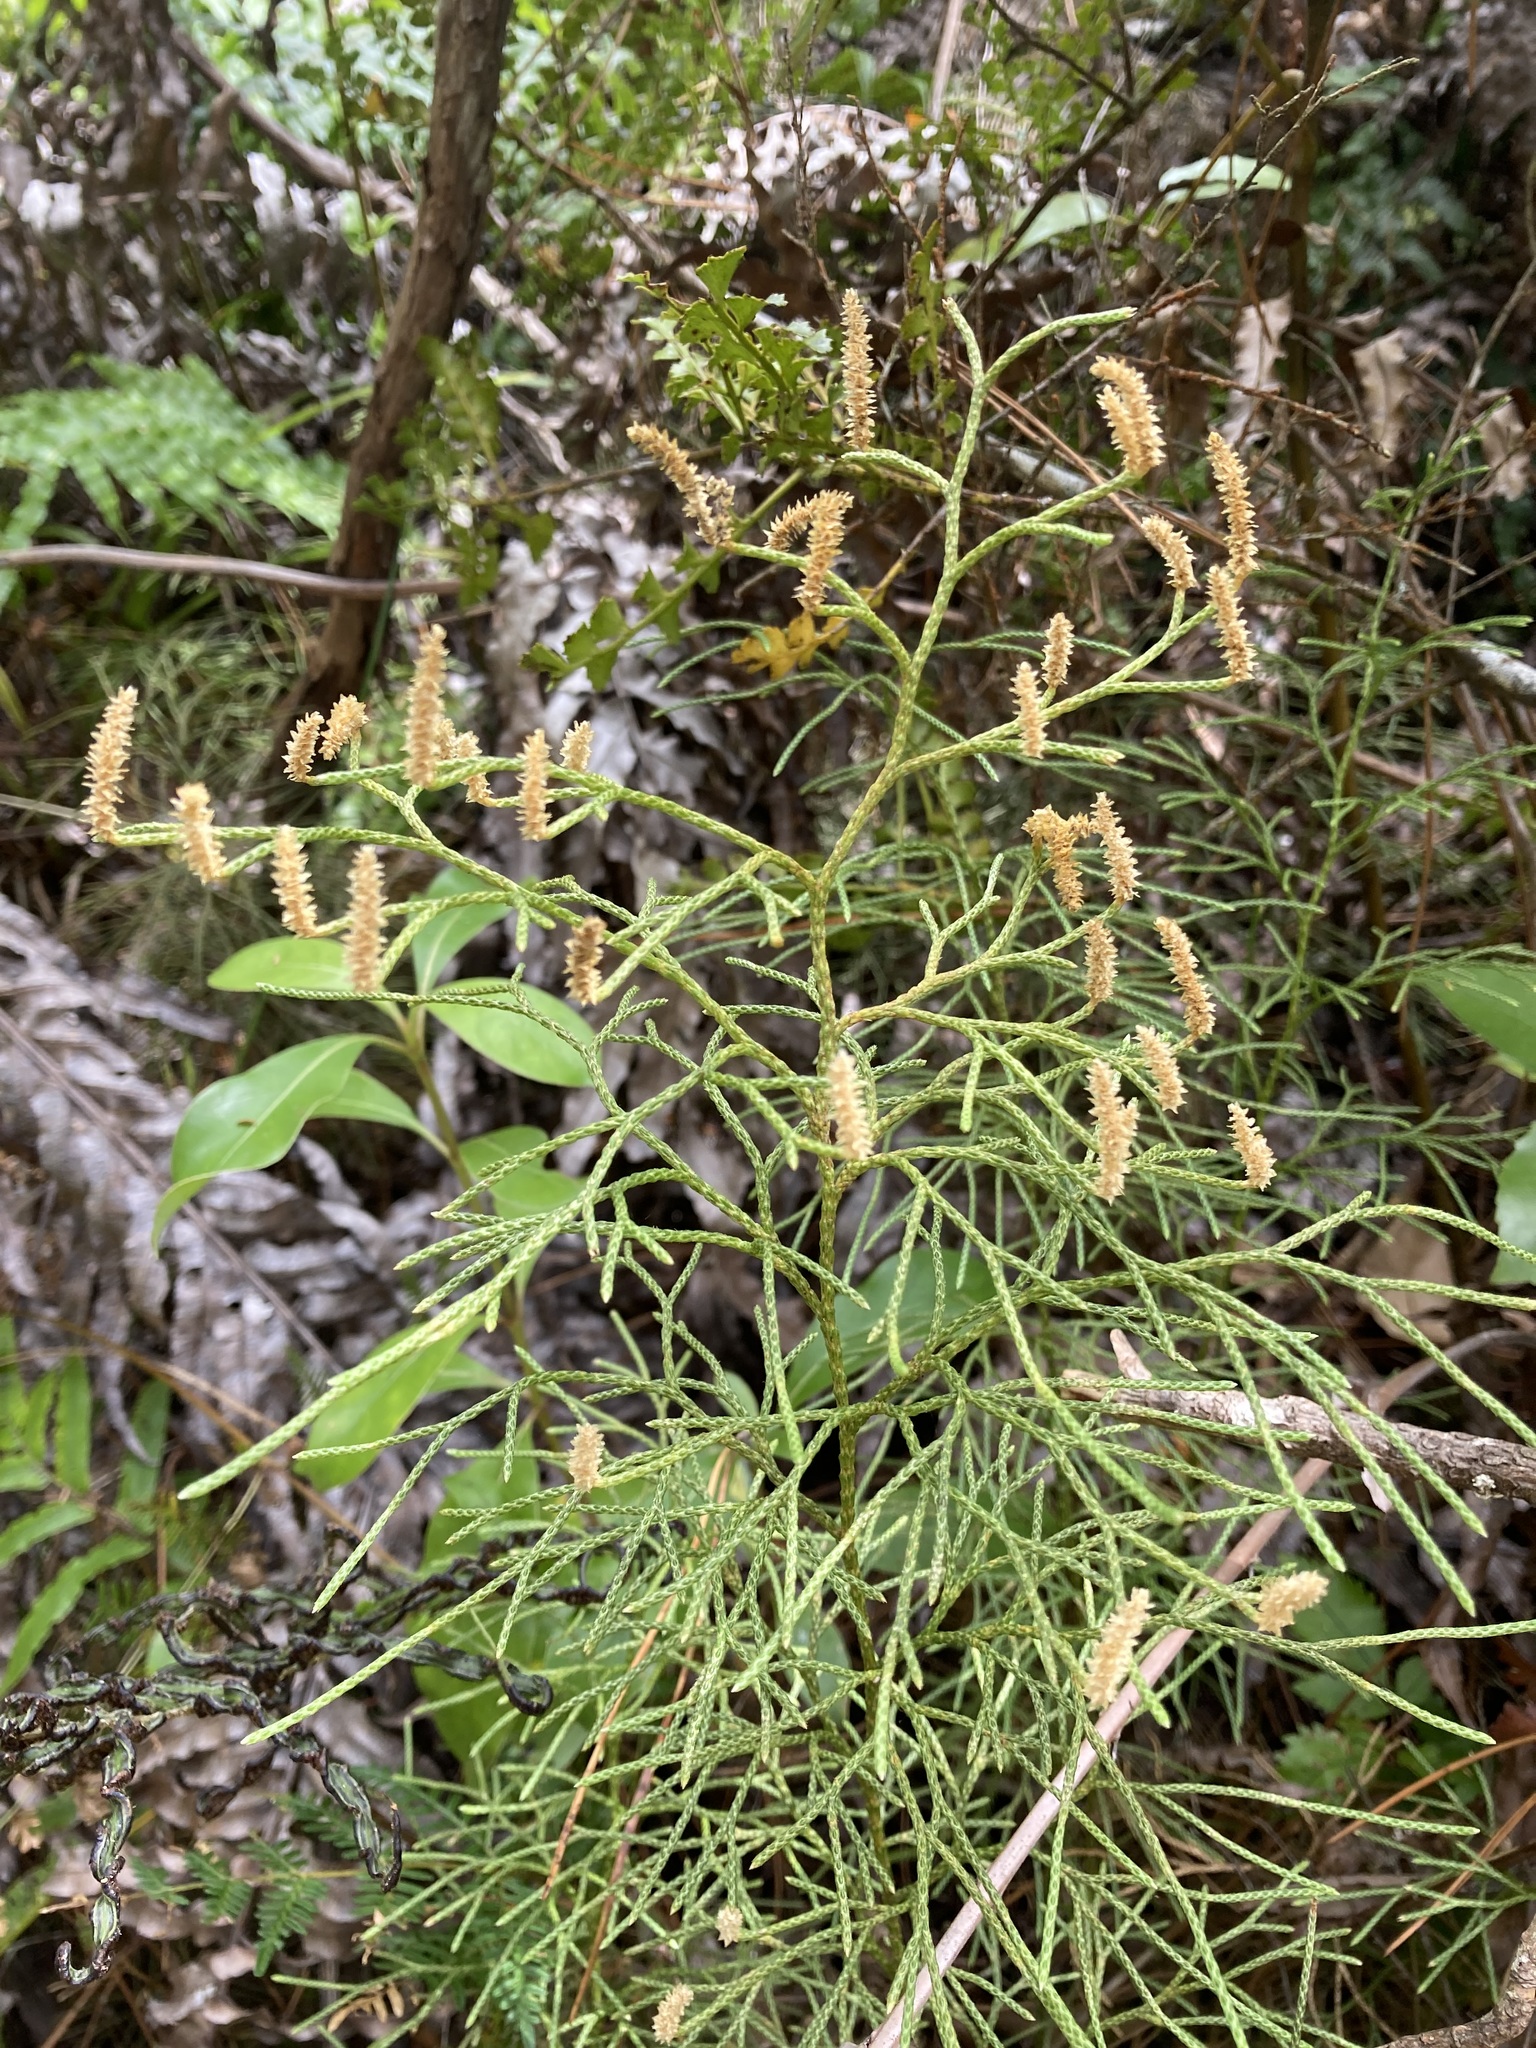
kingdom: Plantae
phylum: Tracheophyta
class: Lycopodiopsida
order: Lycopodiales
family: Lycopodiaceae
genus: Pseudolycopodium
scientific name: Pseudolycopodium densum
